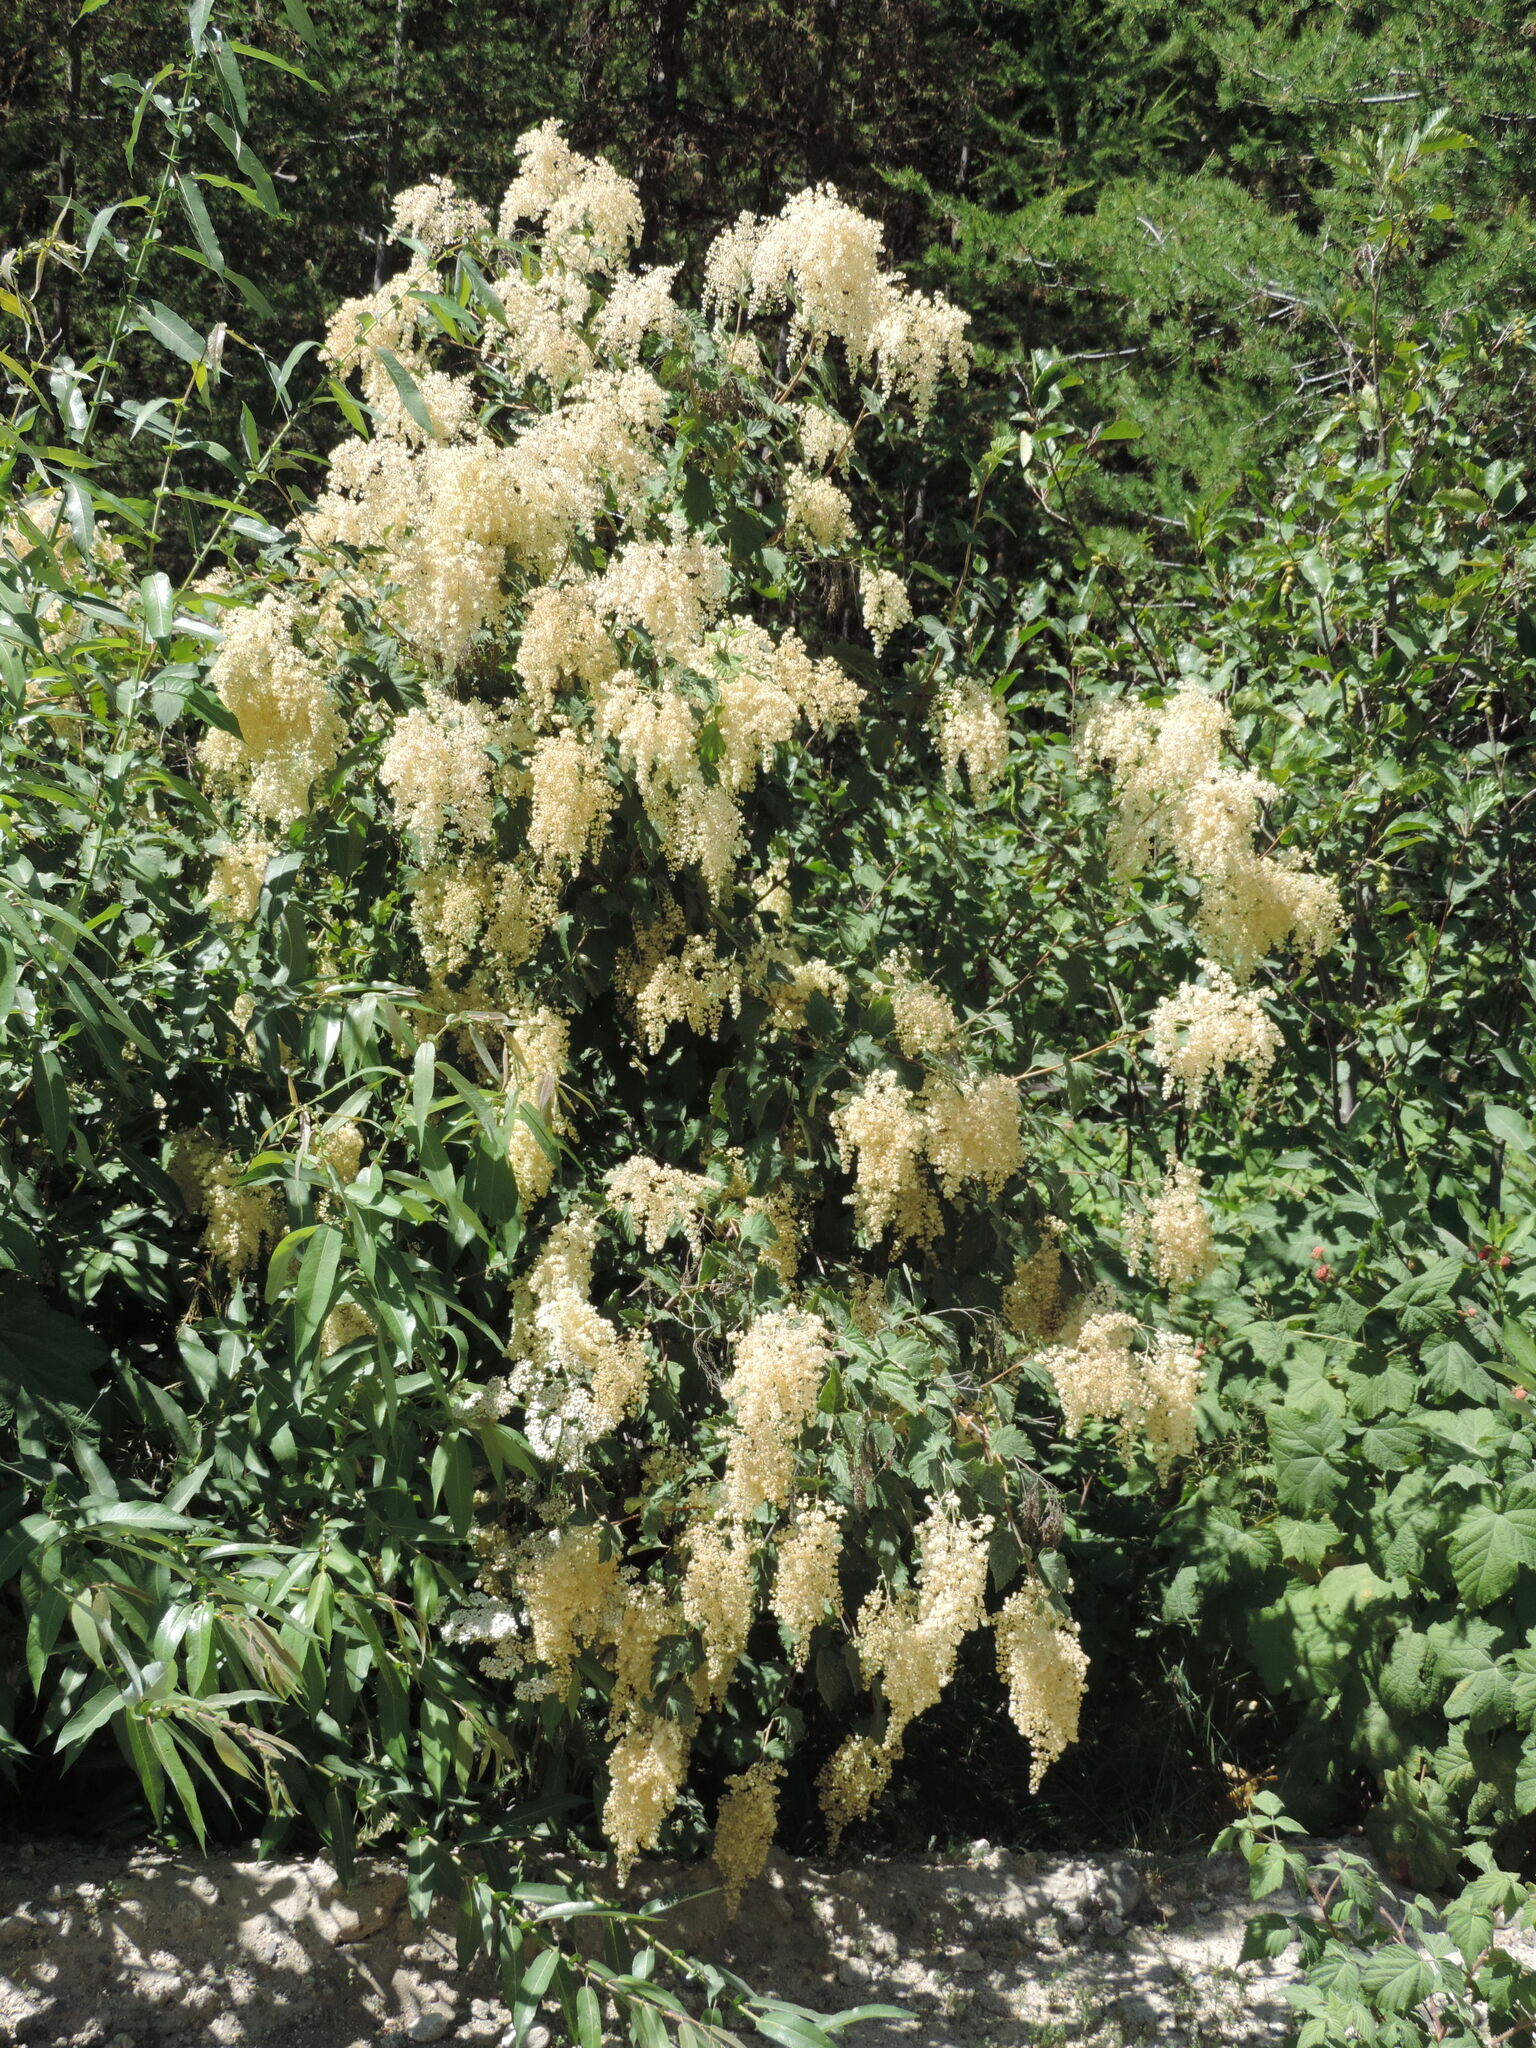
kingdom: Plantae
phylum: Tracheophyta
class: Magnoliopsida
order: Rosales
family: Rosaceae
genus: Holodiscus
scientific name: Holodiscus discolor
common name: Oceanspray
